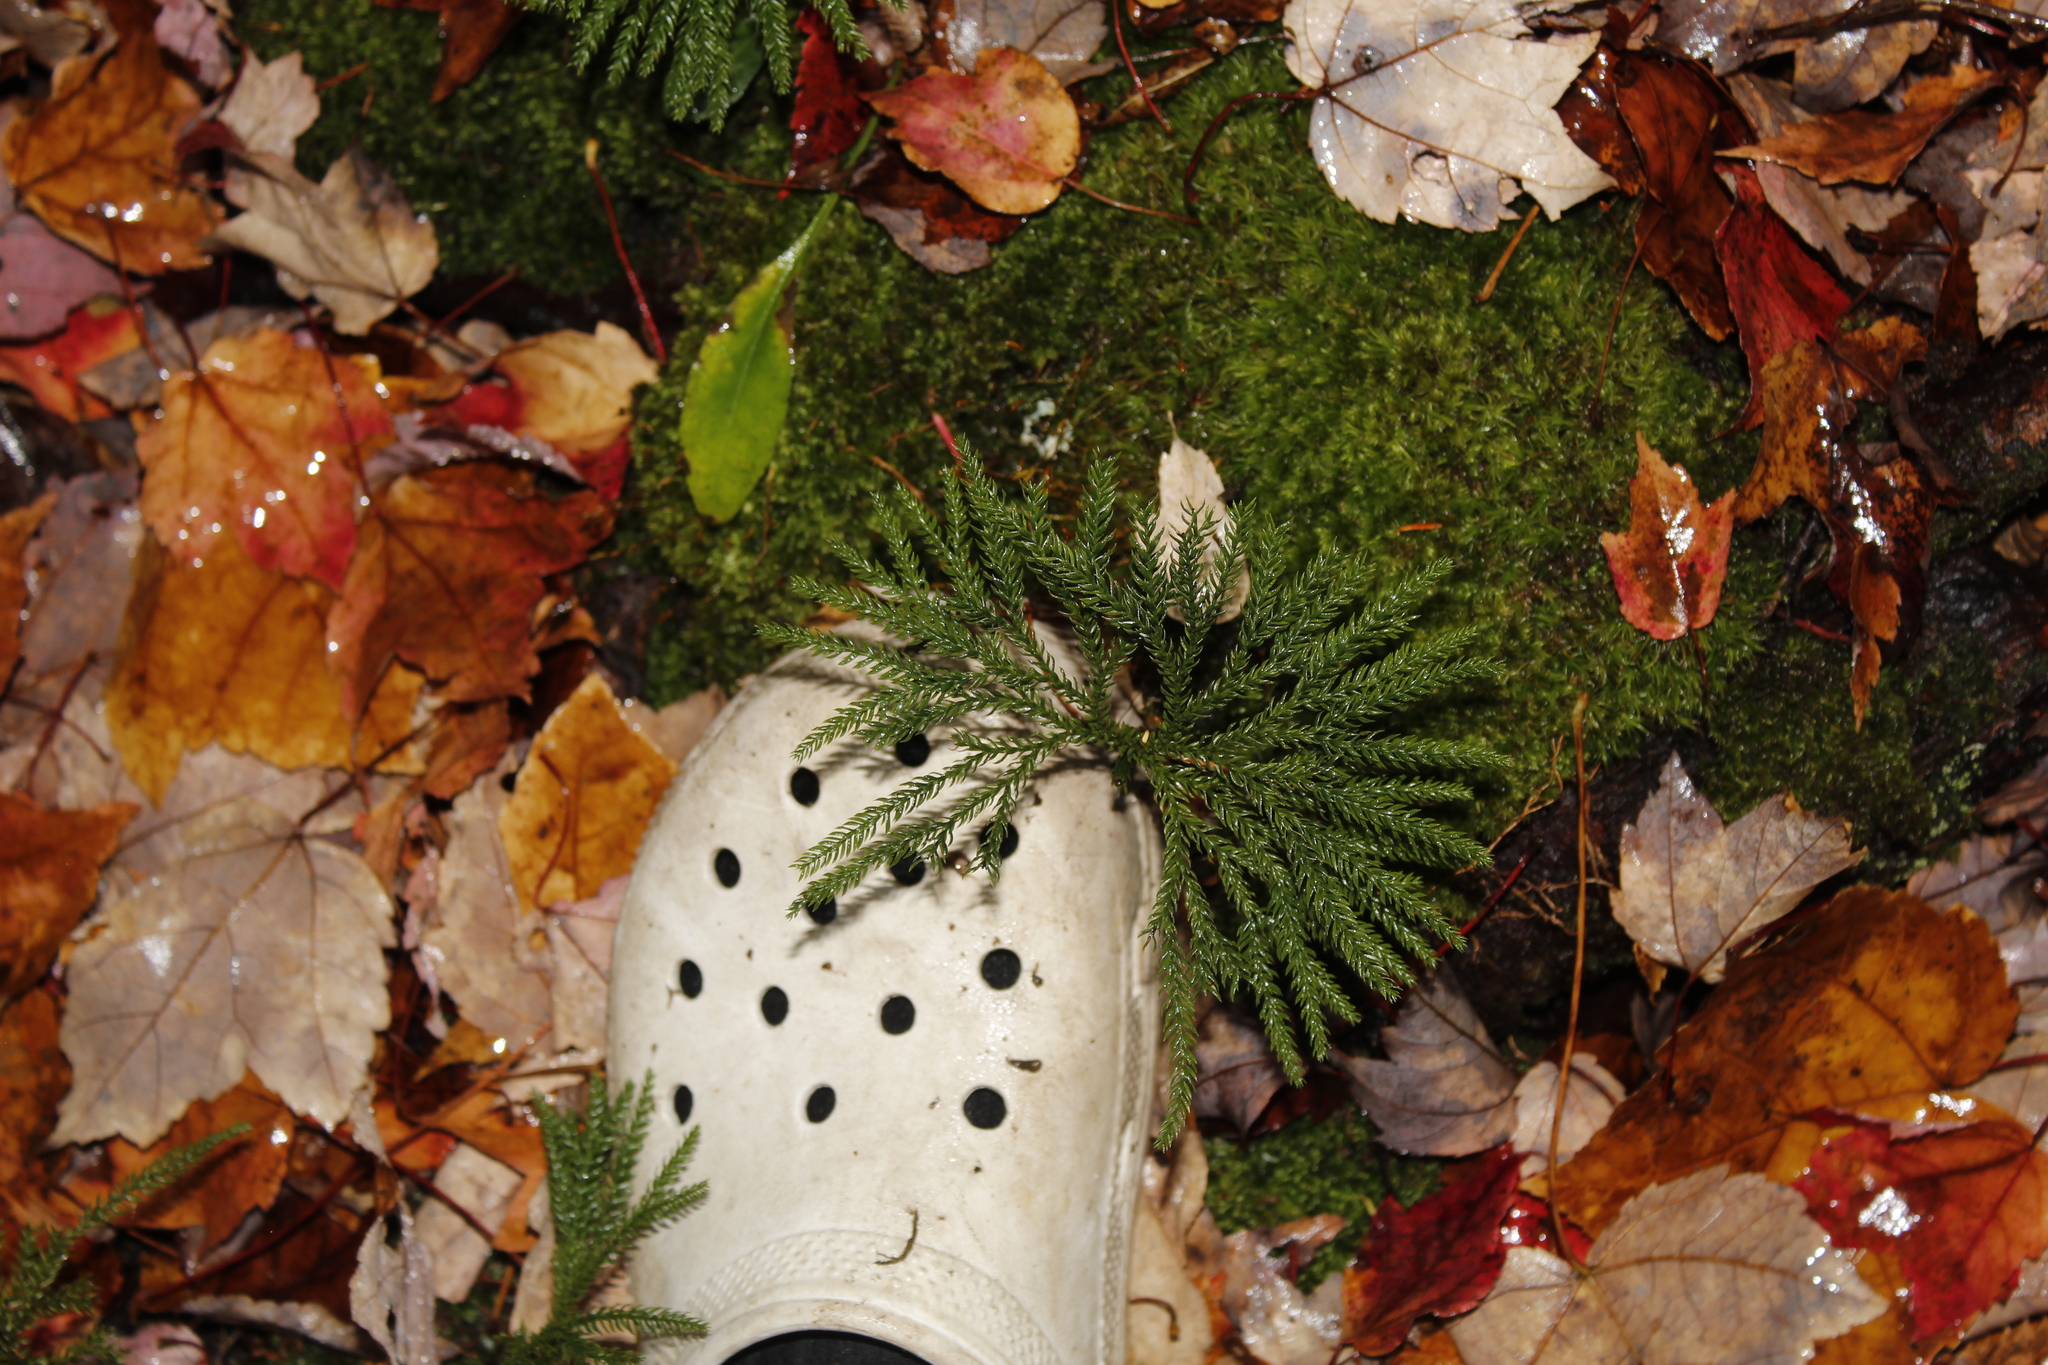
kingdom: Plantae
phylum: Tracheophyta
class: Lycopodiopsida
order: Lycopodiales
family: Lycopodiaceae
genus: Dendrolycopodium
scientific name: Dendrolycopodium obscurum
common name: Common ground-pine
